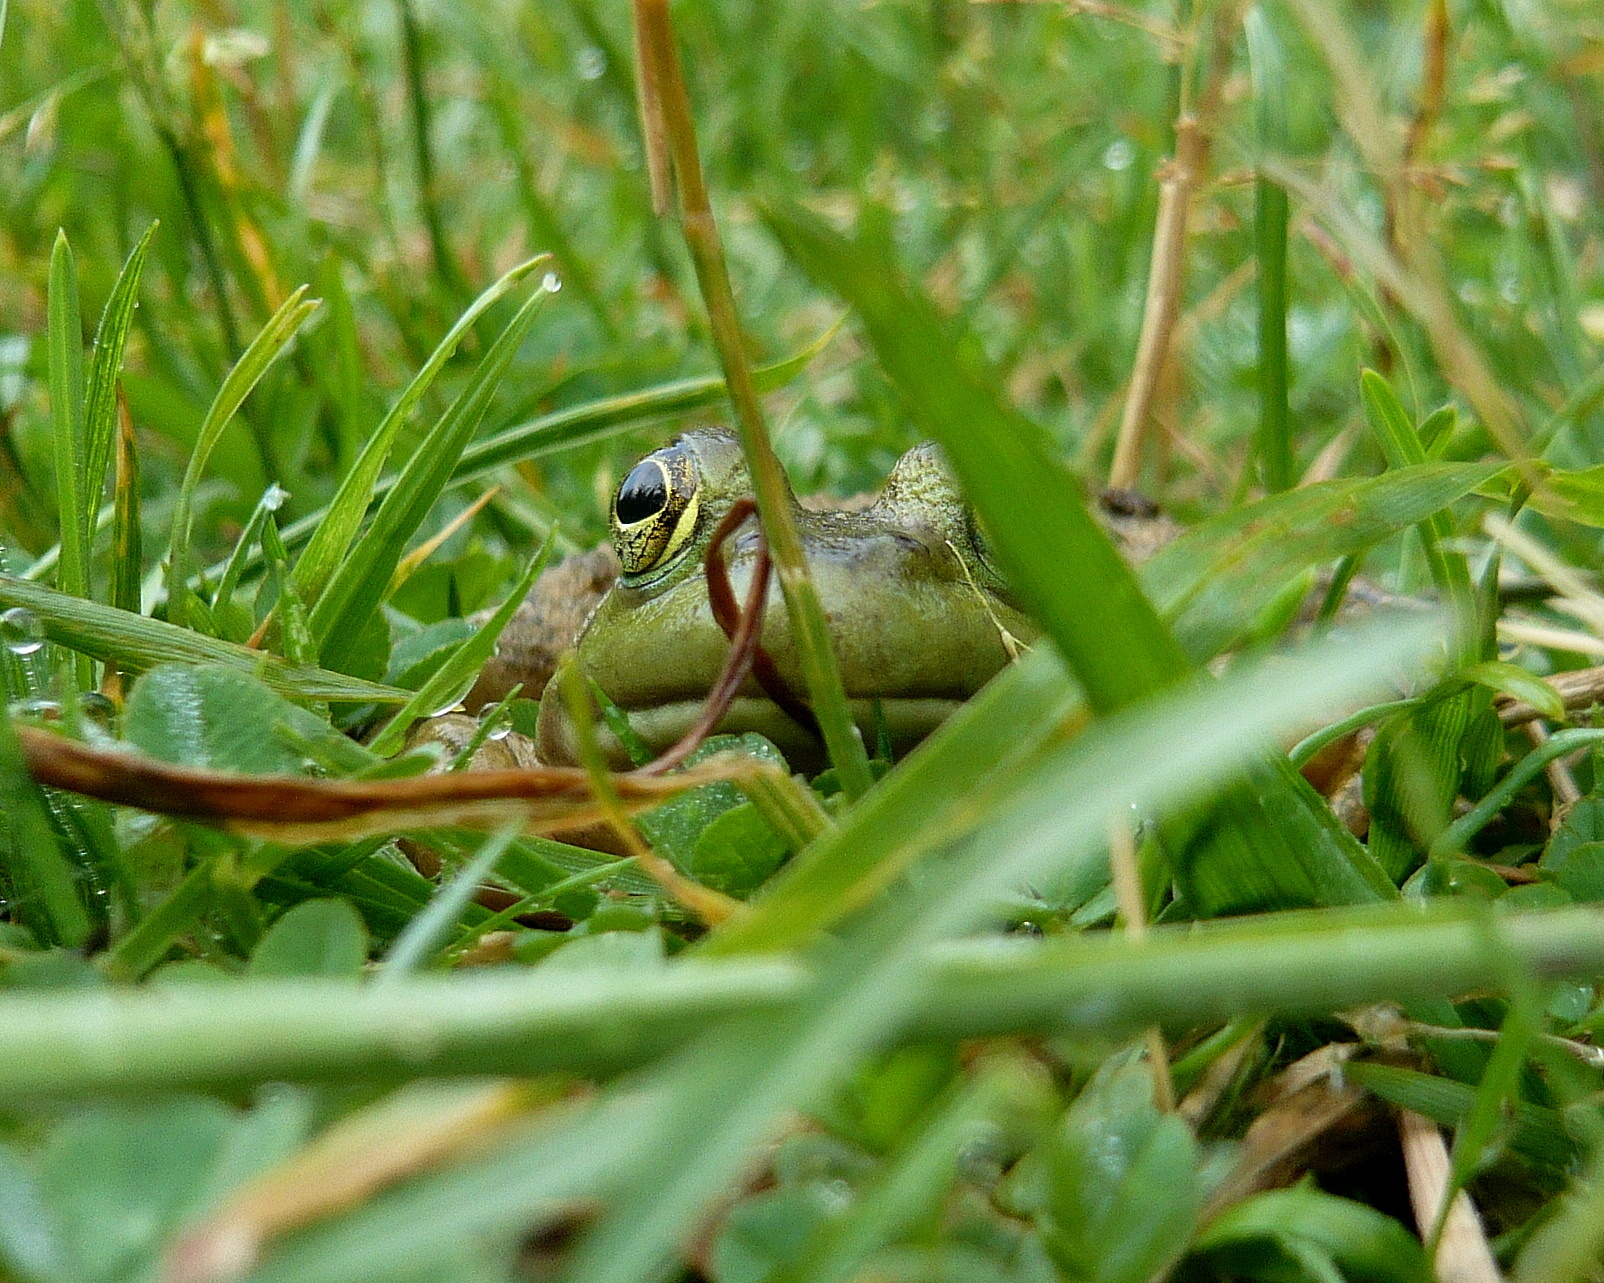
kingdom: Animalia
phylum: Chordata
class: Amphibia
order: Anura
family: Ranidae
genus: Lithobates
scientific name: Lithobates
